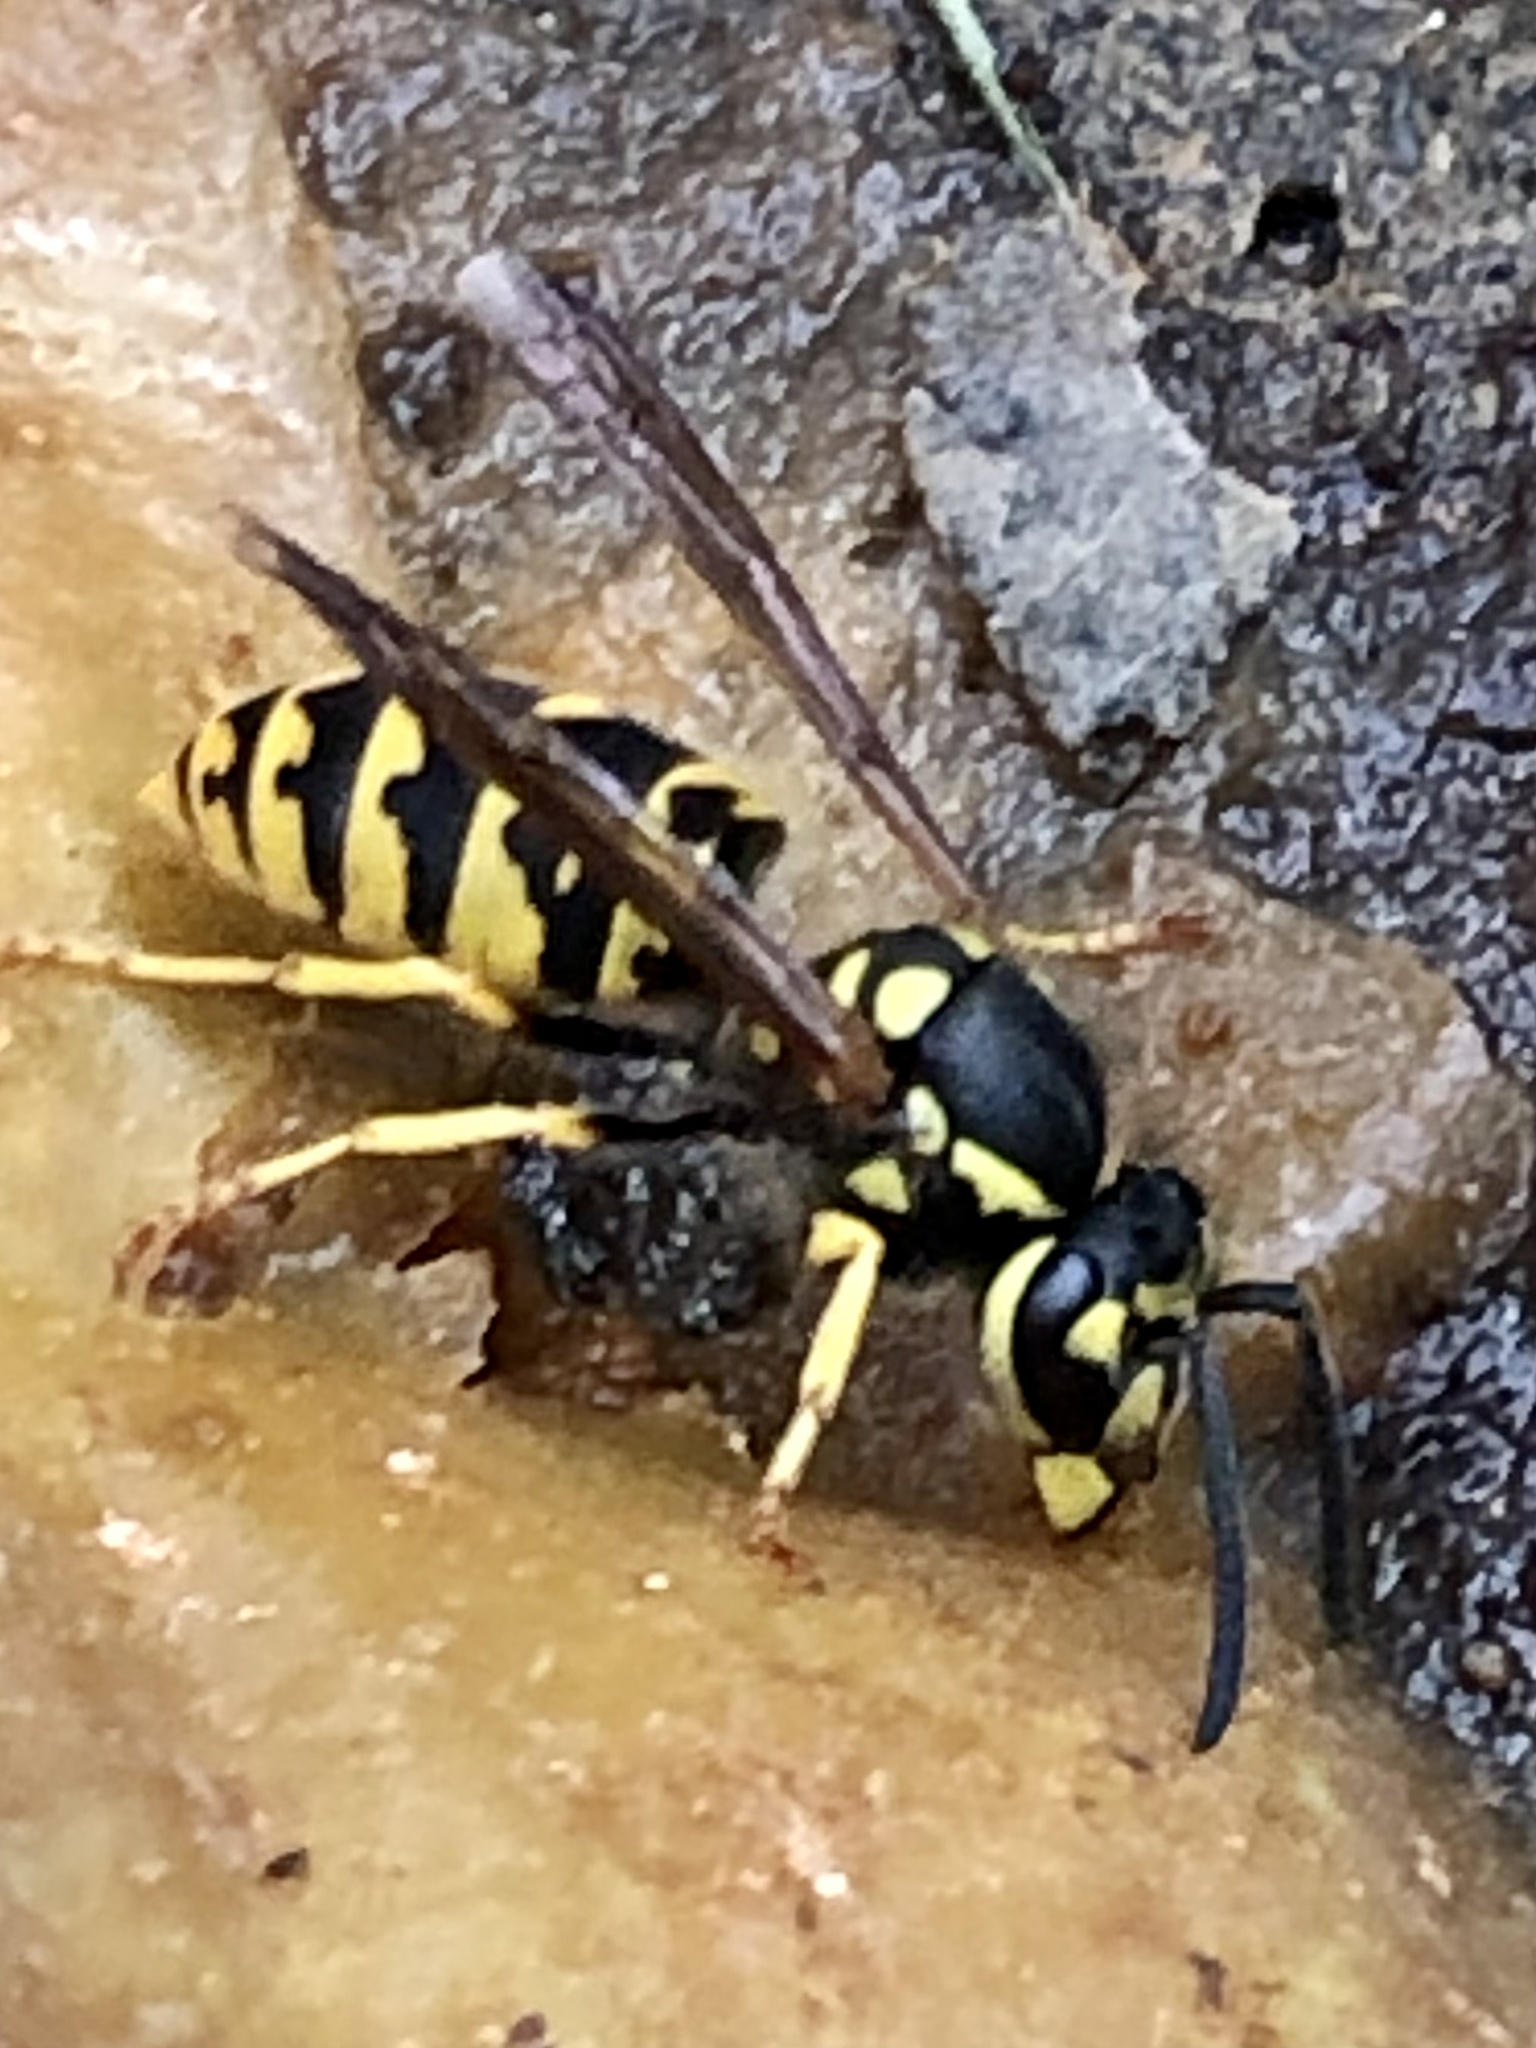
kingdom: Animalia
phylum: Arthropoda
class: Insecta
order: Hymenoptera
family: Vespidae
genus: Vespula
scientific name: Vespula germanica
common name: German wasp
